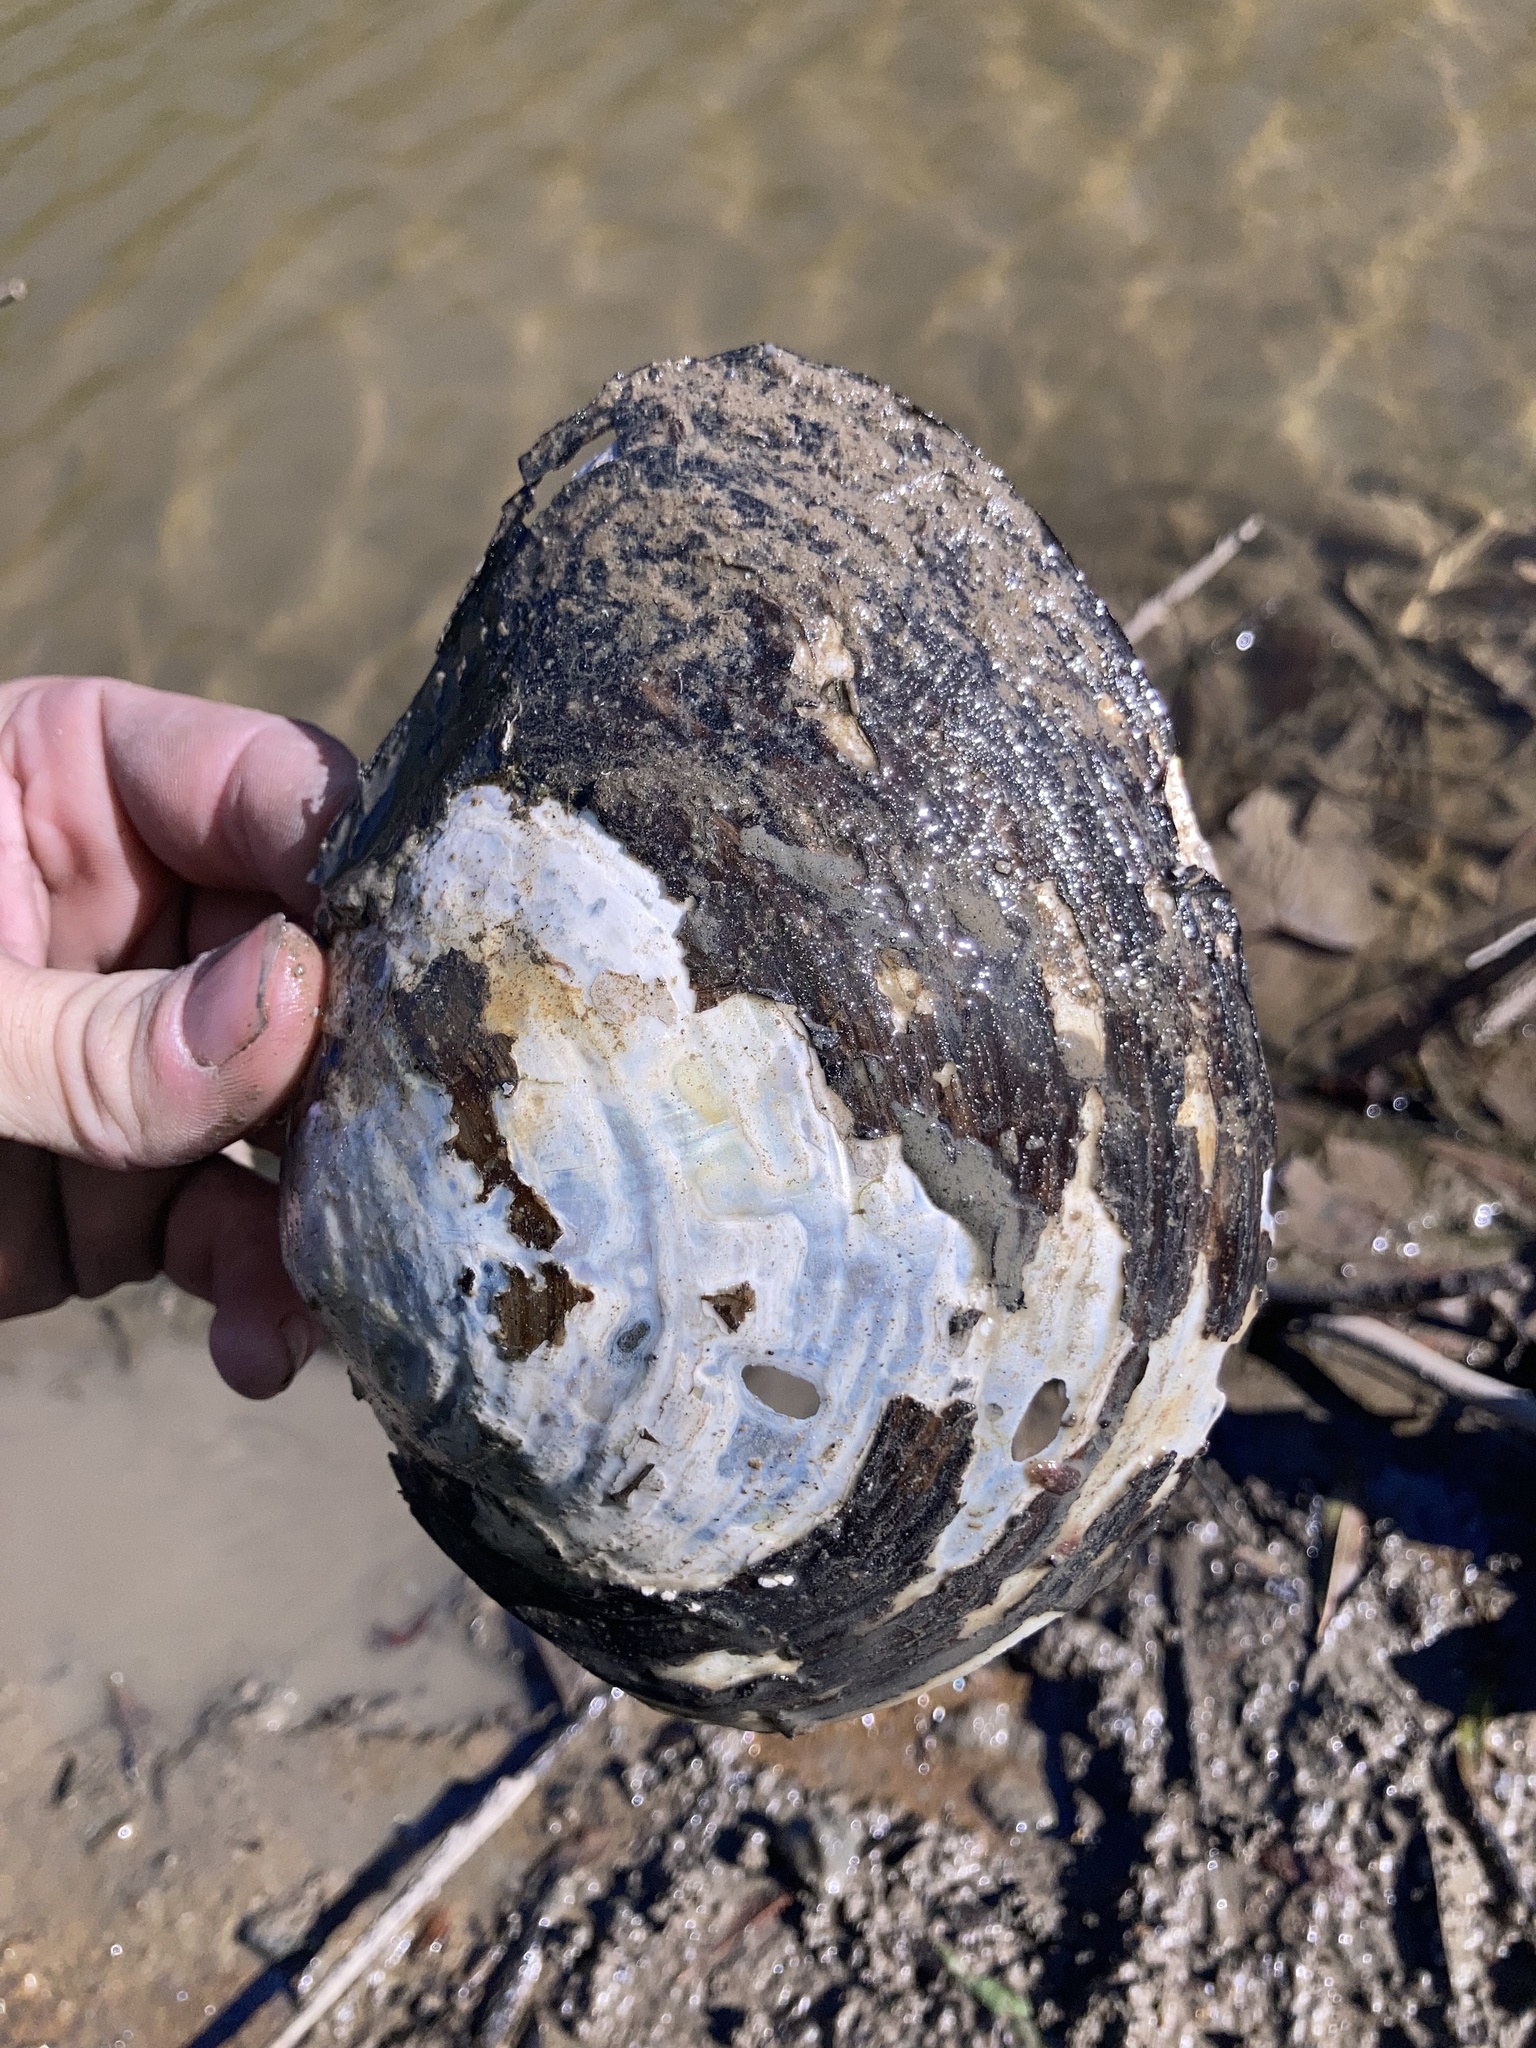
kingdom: Animalia
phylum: Mollusca
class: Bivalvia
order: Unionida
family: Unionidae
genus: Utterbackiana
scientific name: Utterbackiana suborbiculata
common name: Flat floater
